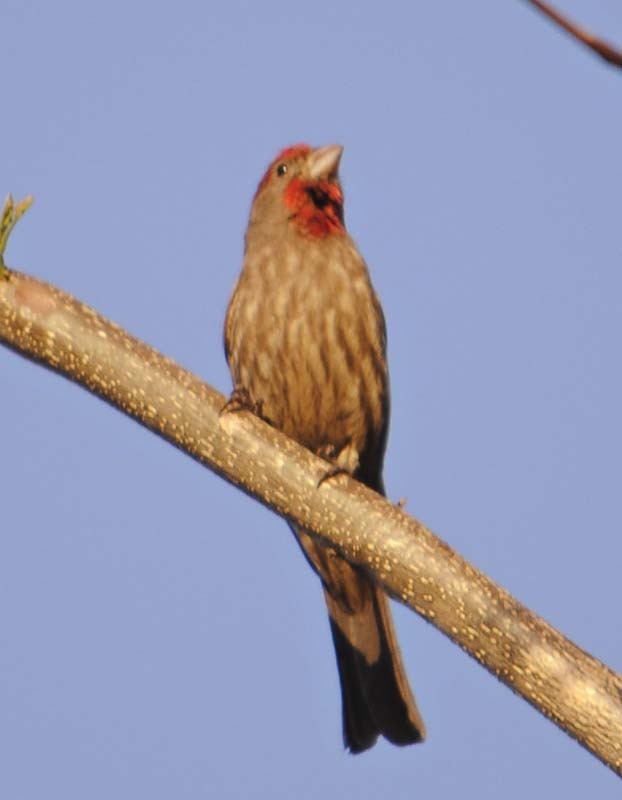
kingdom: Animalia
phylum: Chordata
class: Aves
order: Passeriformes
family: Fringillidae
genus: Haemorhous
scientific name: Haemorhous mexicanus
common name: House finch
